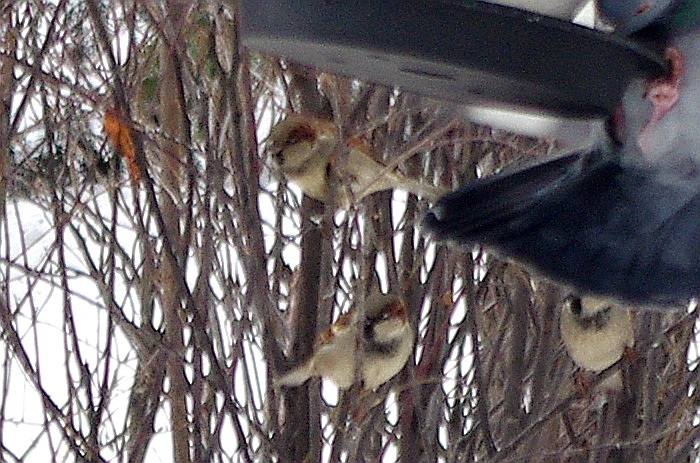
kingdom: Animalia
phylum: Chordata
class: Aves
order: Passeriformes
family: Passeridae
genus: Passer
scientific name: Passer domesticus
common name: House sparrow
